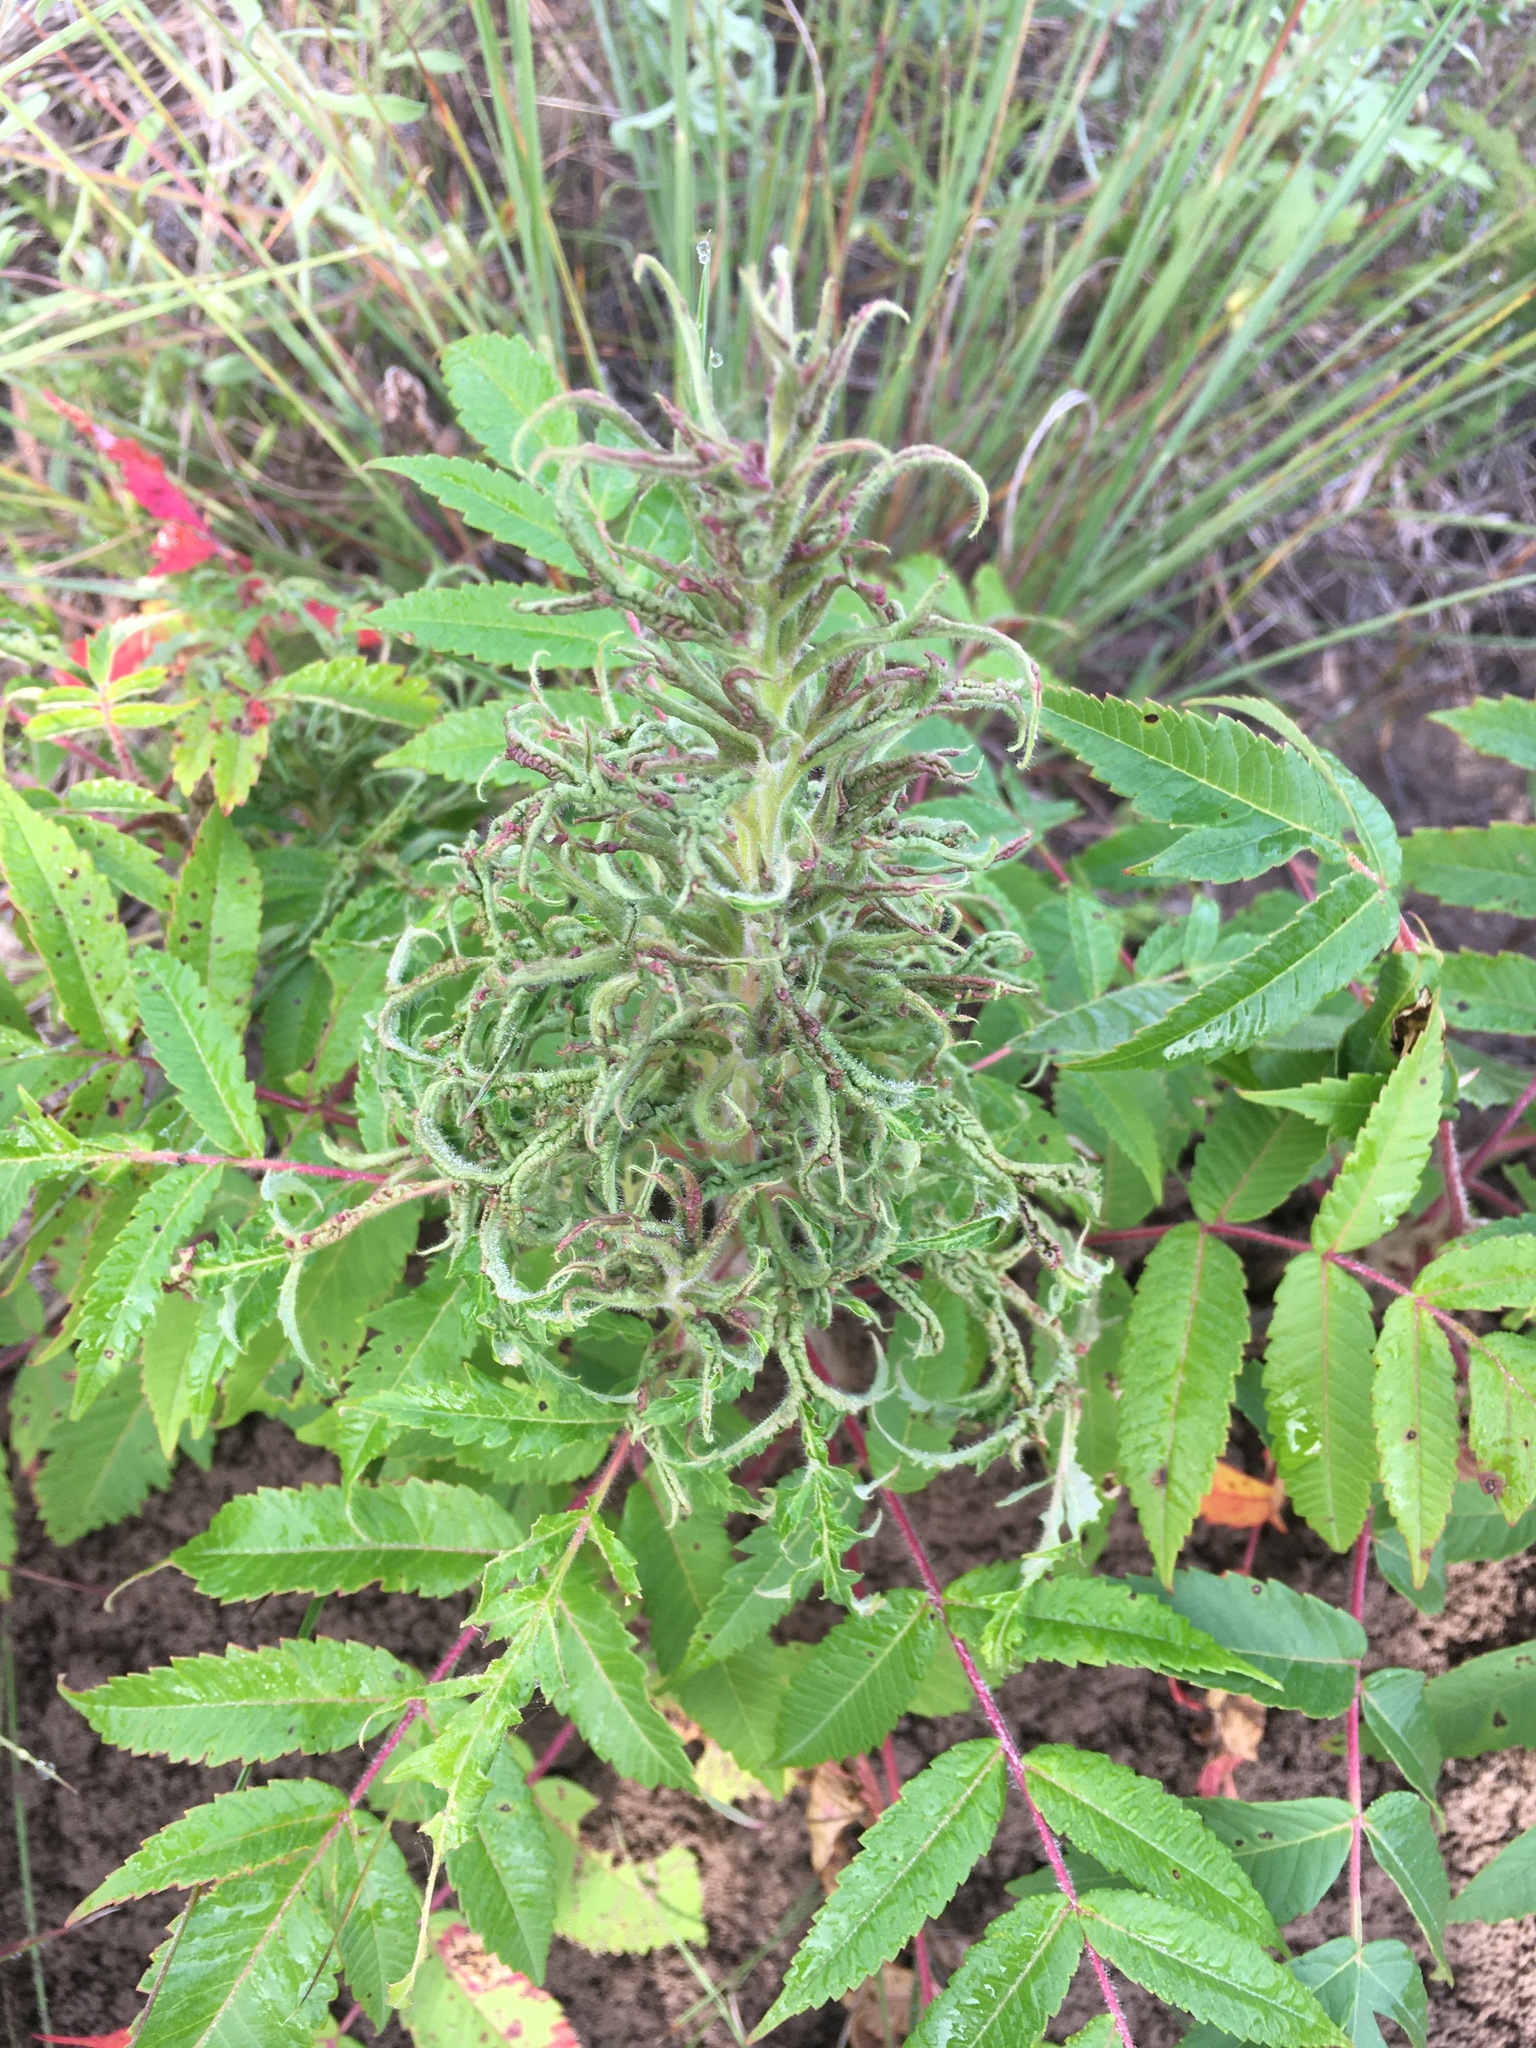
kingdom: Animalia
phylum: Arthropoda
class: Arachnida
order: Trombidiformes
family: Eriophyidae
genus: Eriophyes
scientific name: Eriophyes
